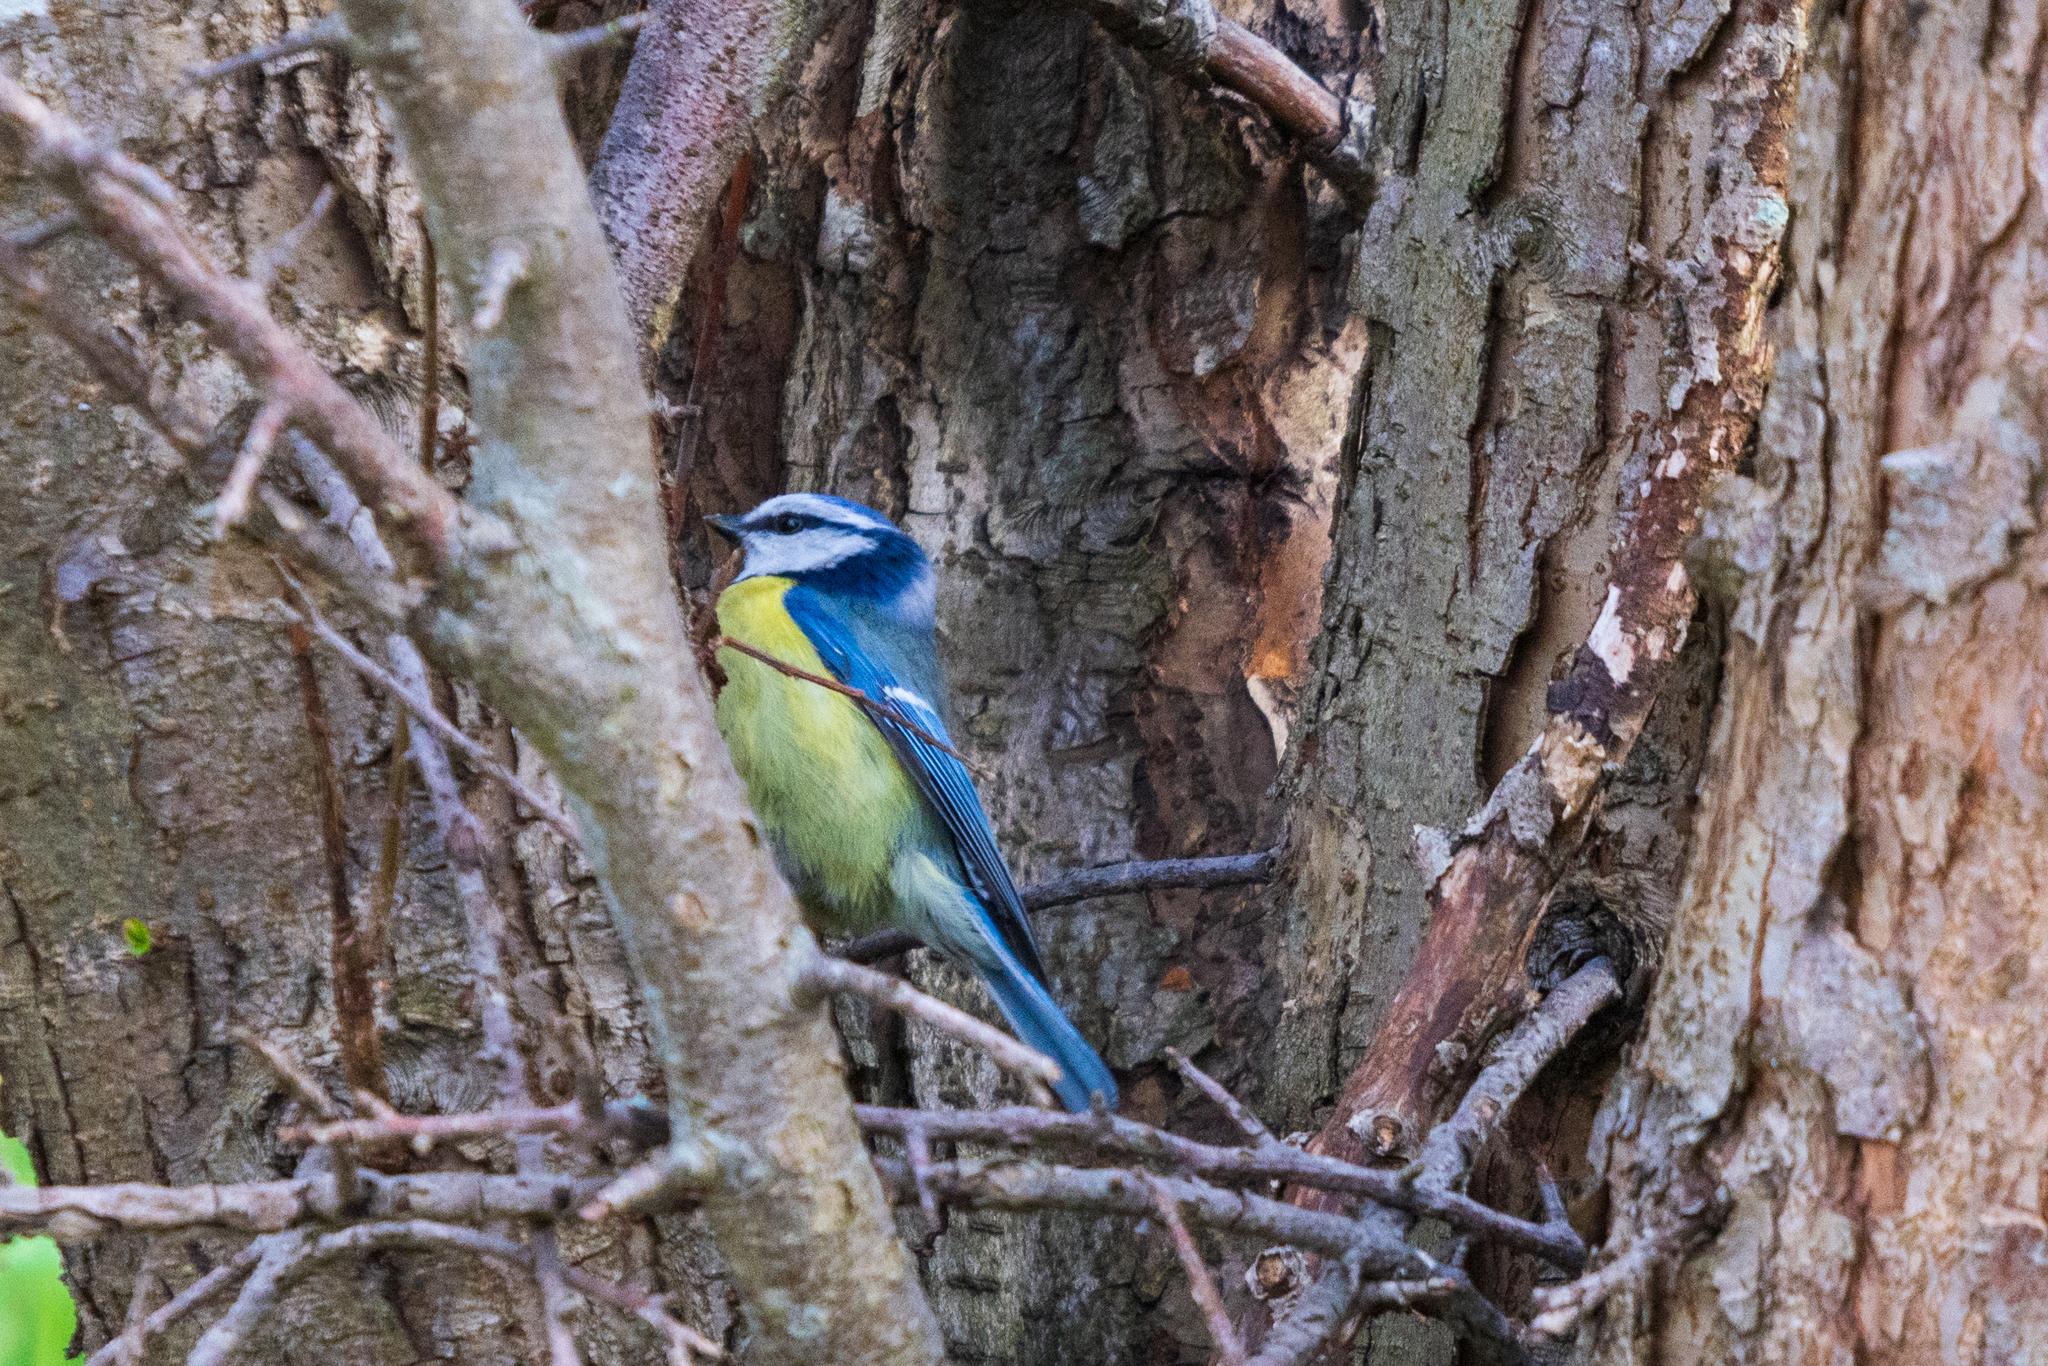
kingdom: Animalia
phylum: Chordata
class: Aves
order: Passeriformes
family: Paridae
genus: Cyanistes
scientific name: Cyanistes caeruleus
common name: Eurasian blue tit
